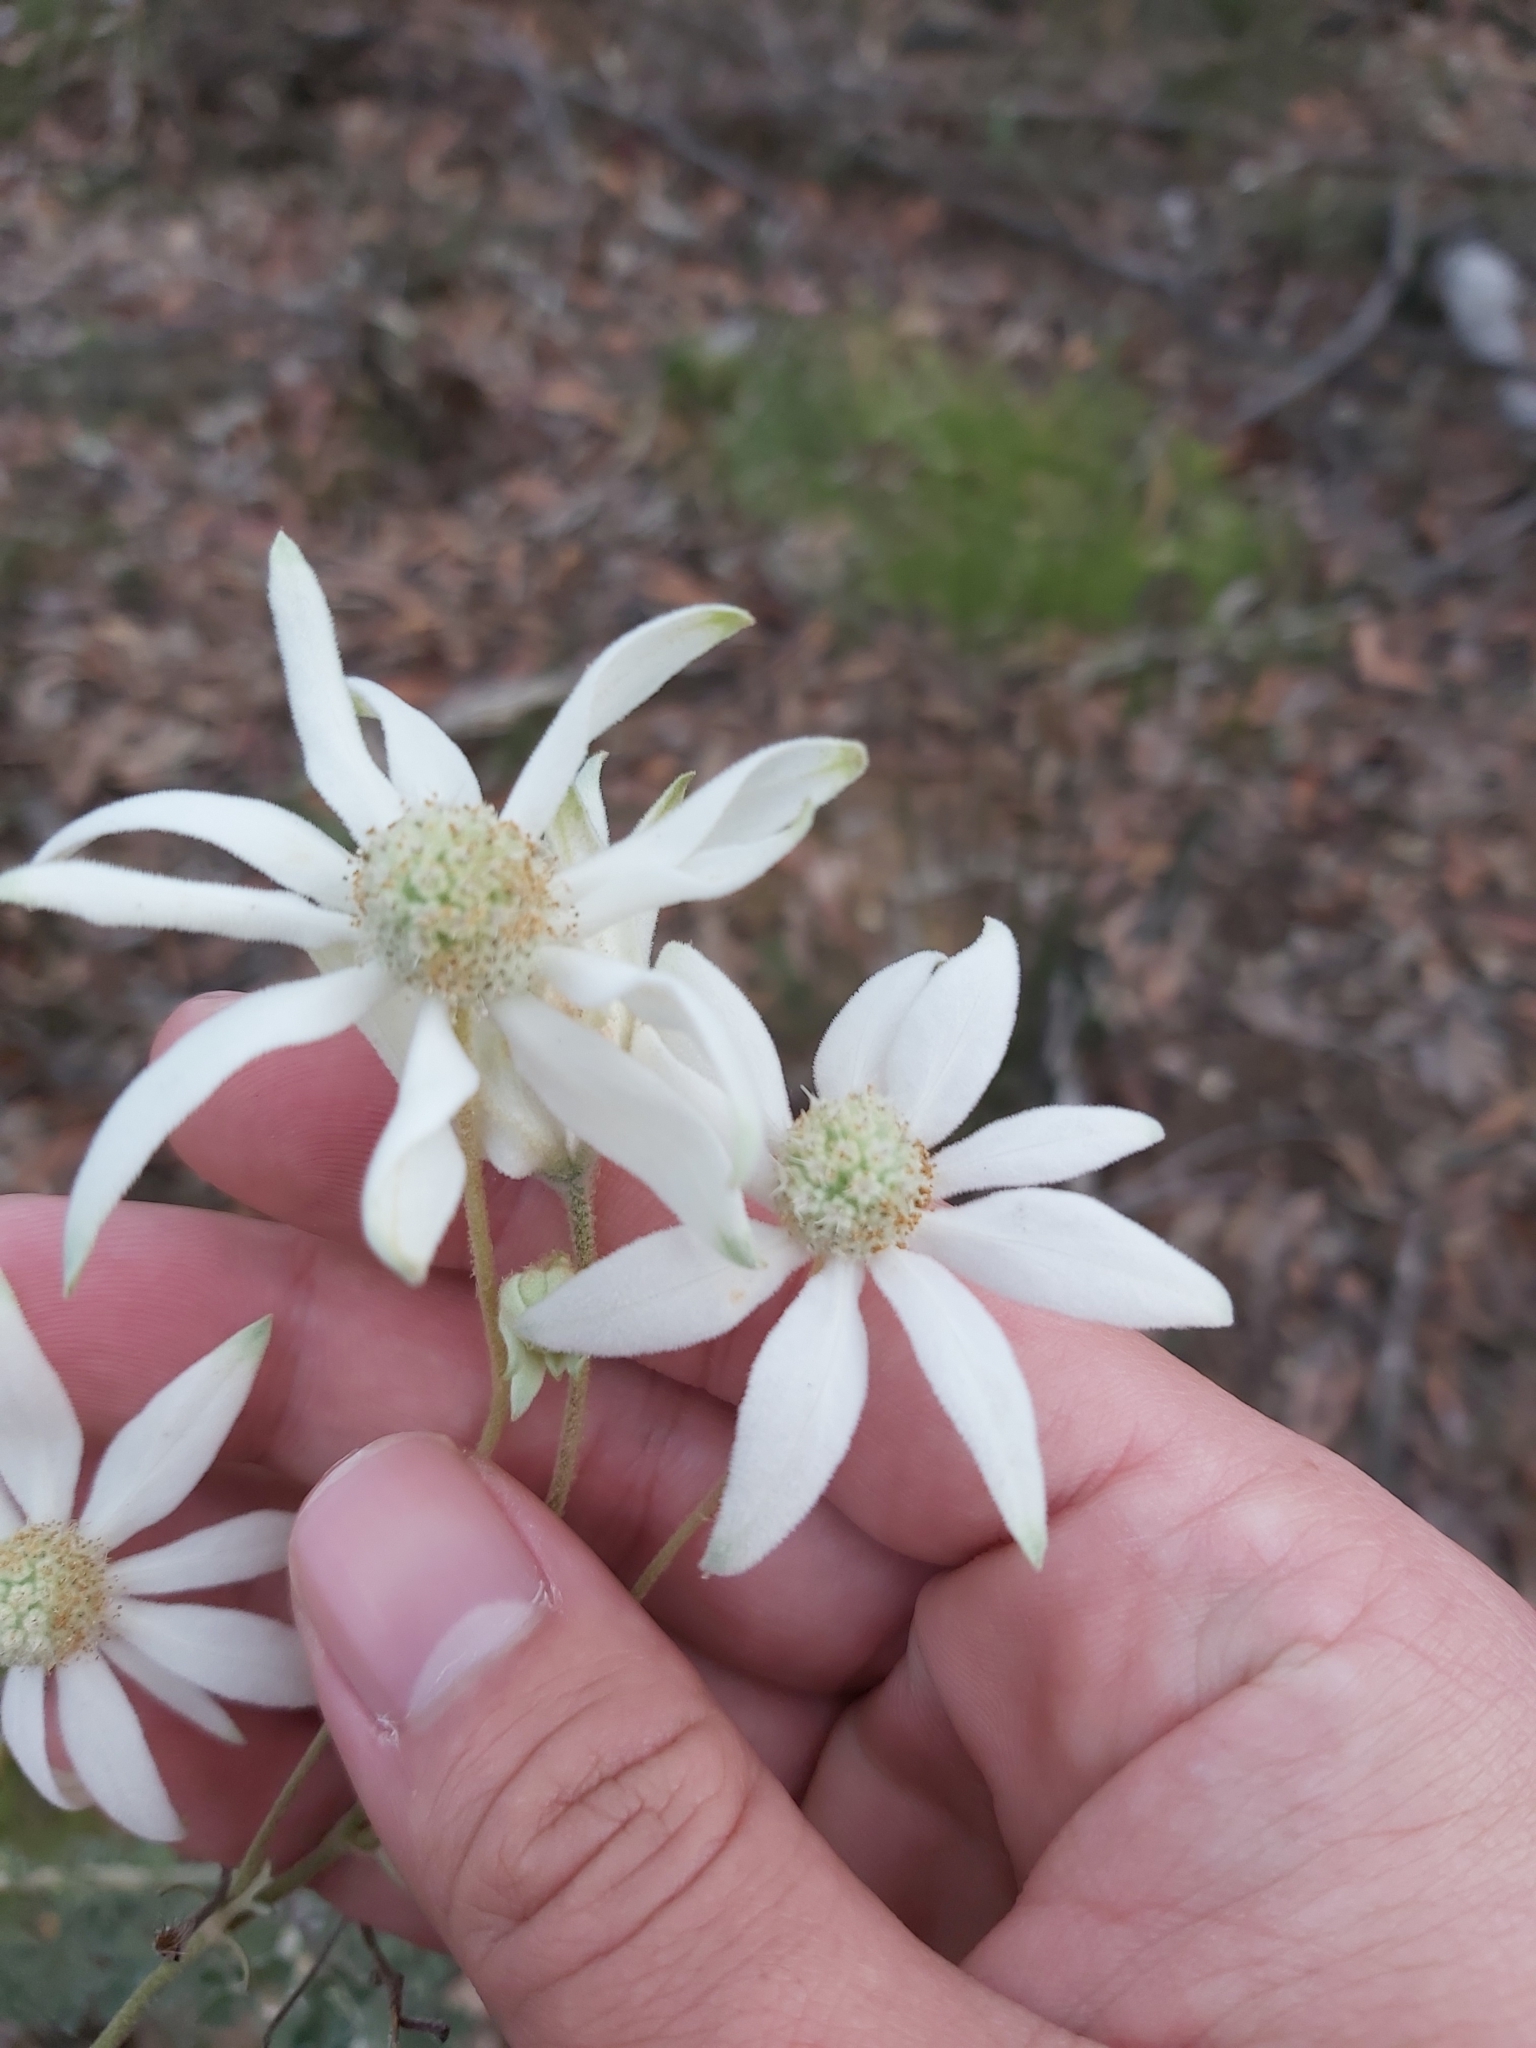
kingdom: Plantae
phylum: Tracheophyta
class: Magnoliopsida
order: Apiales
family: Apiaceae
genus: Actinotus
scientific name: Actinotus helianthi
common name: Flannel-flower
